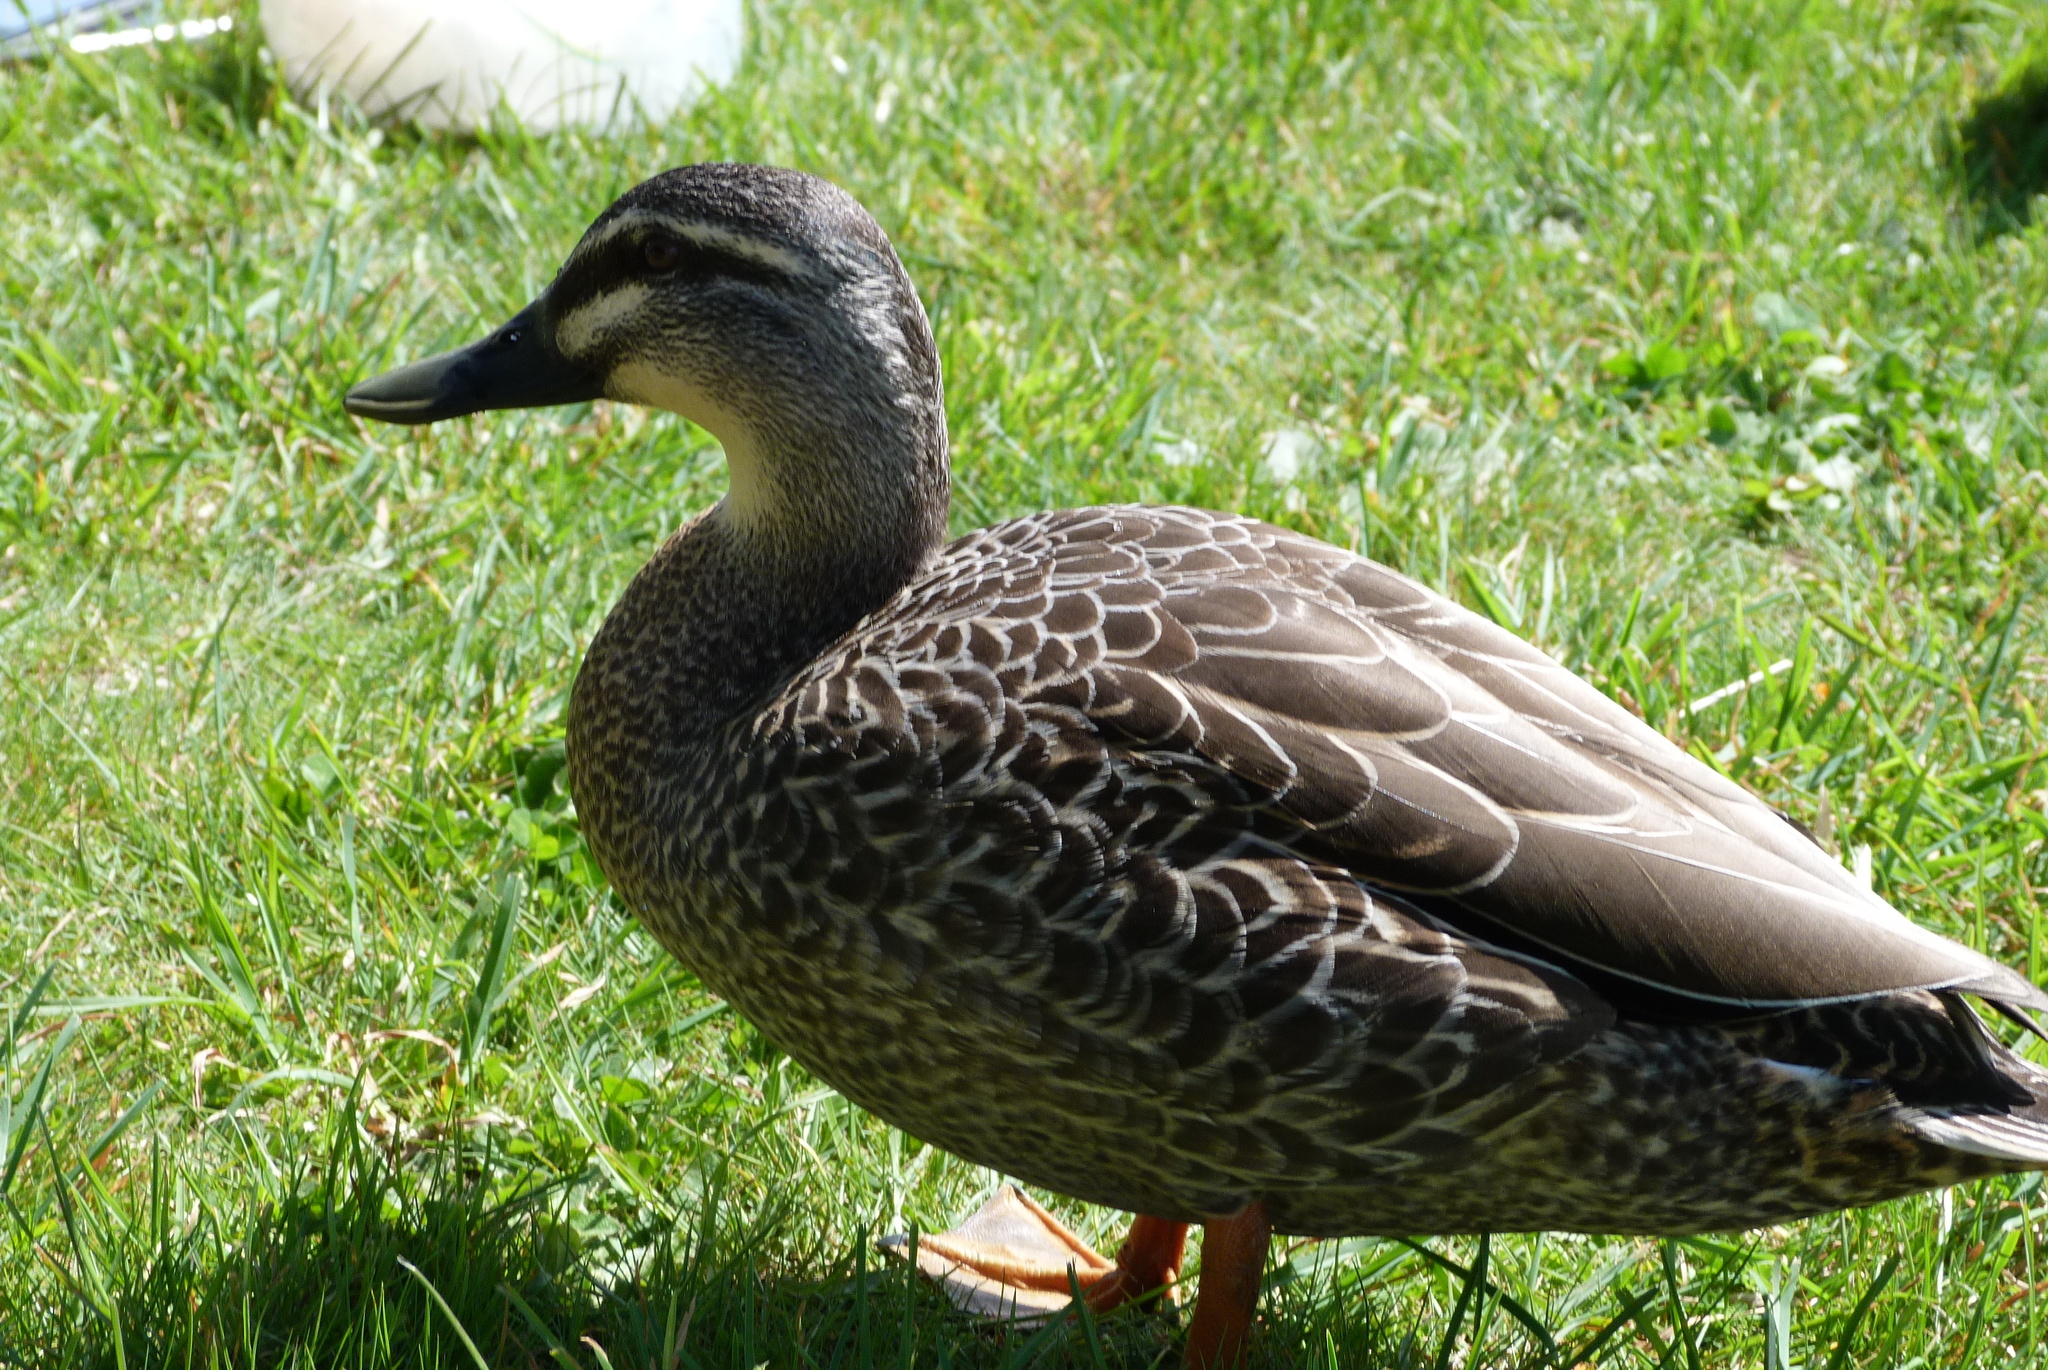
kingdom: Animalia
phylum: Chordata
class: Aves
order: Anseriformes
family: Anatidae
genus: Anas
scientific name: Anas
